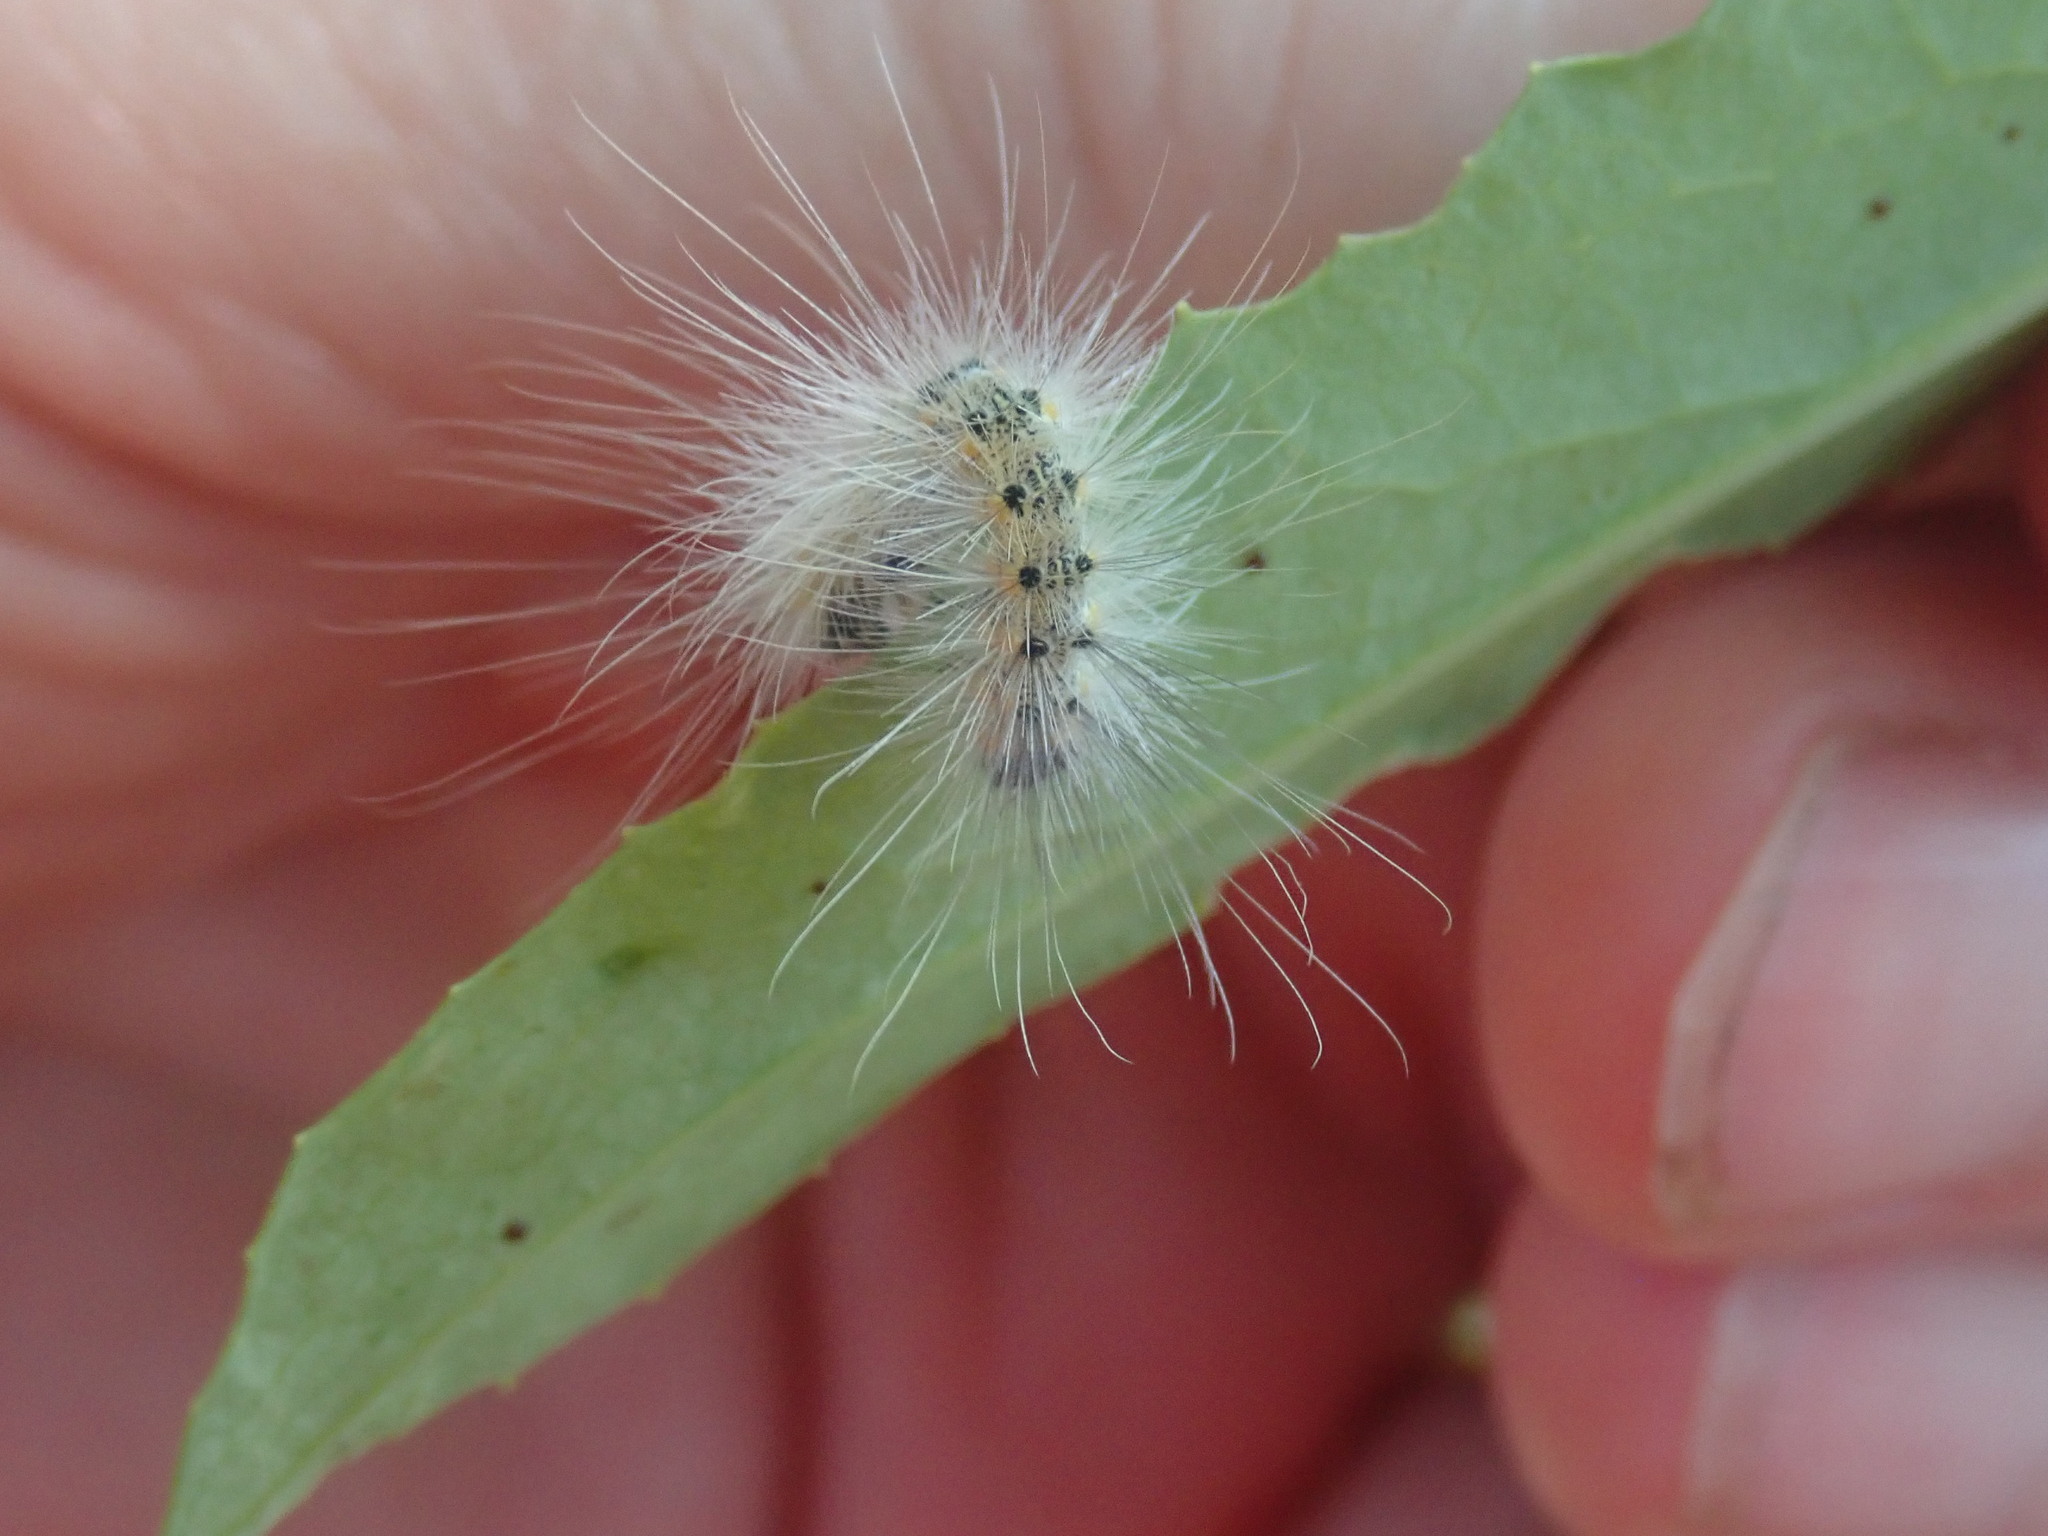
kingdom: Animalia
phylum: Arthropoda
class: Insecta
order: Lepidoptera
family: Erebidae
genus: Hyphantria
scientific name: Hyphantria cunea
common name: American white moth
